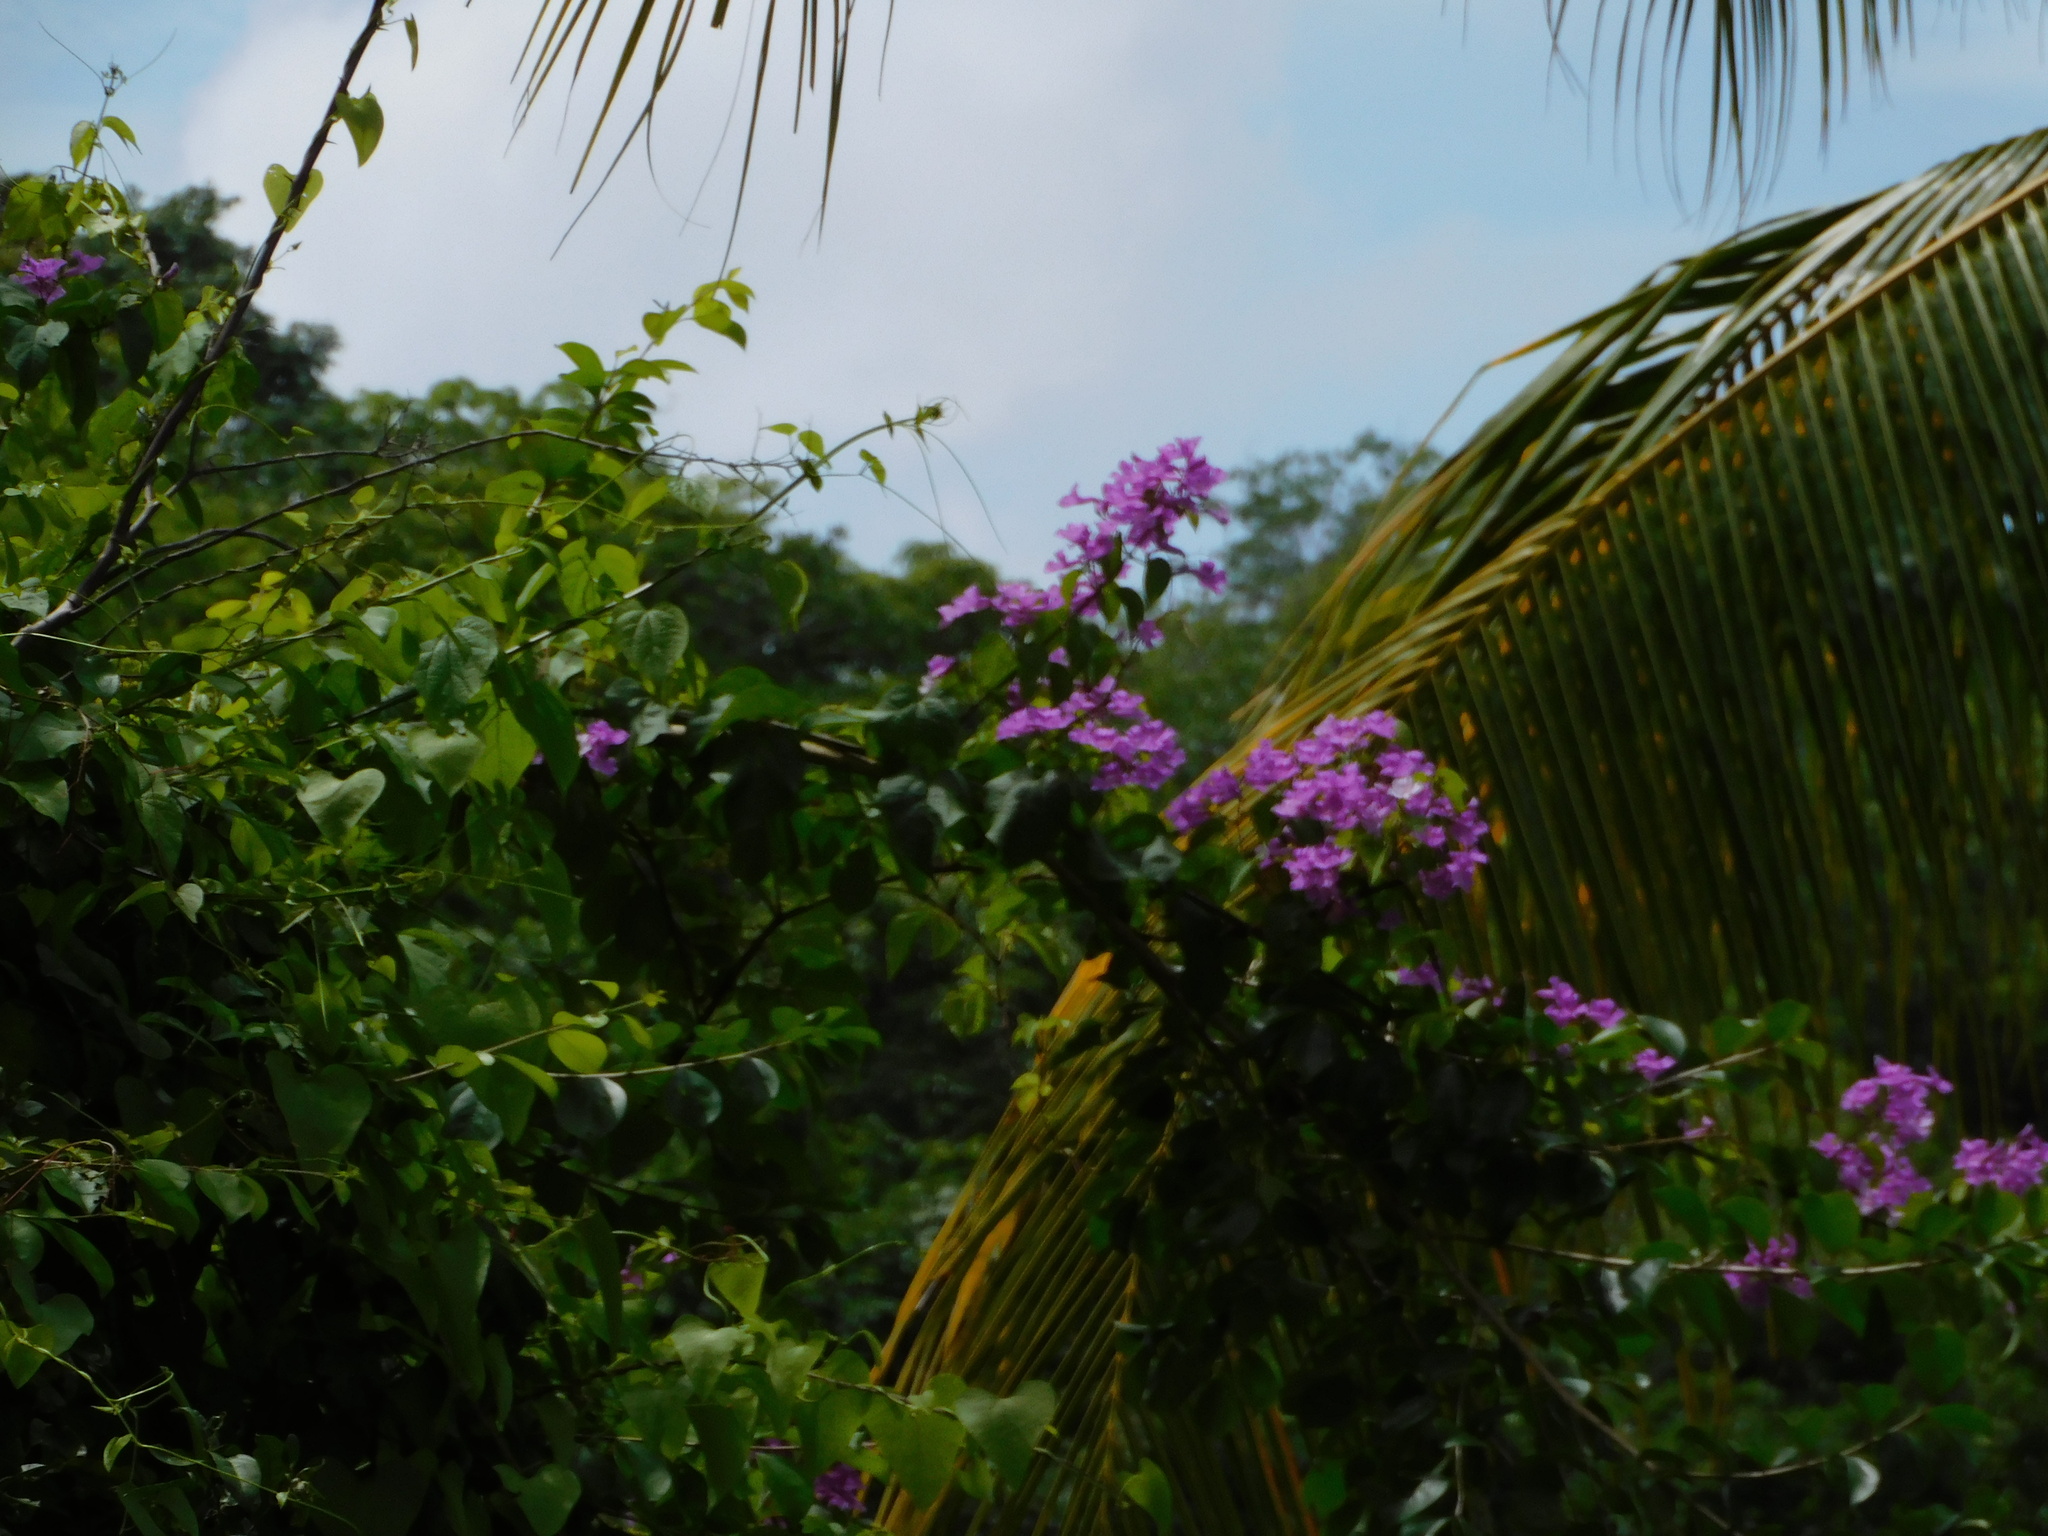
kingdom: Plantae
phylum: Tracheophyta
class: Magnoliopsida
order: Lamiales
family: Bignoniaceae
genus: Bignonia
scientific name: Bignonia diversifolia
